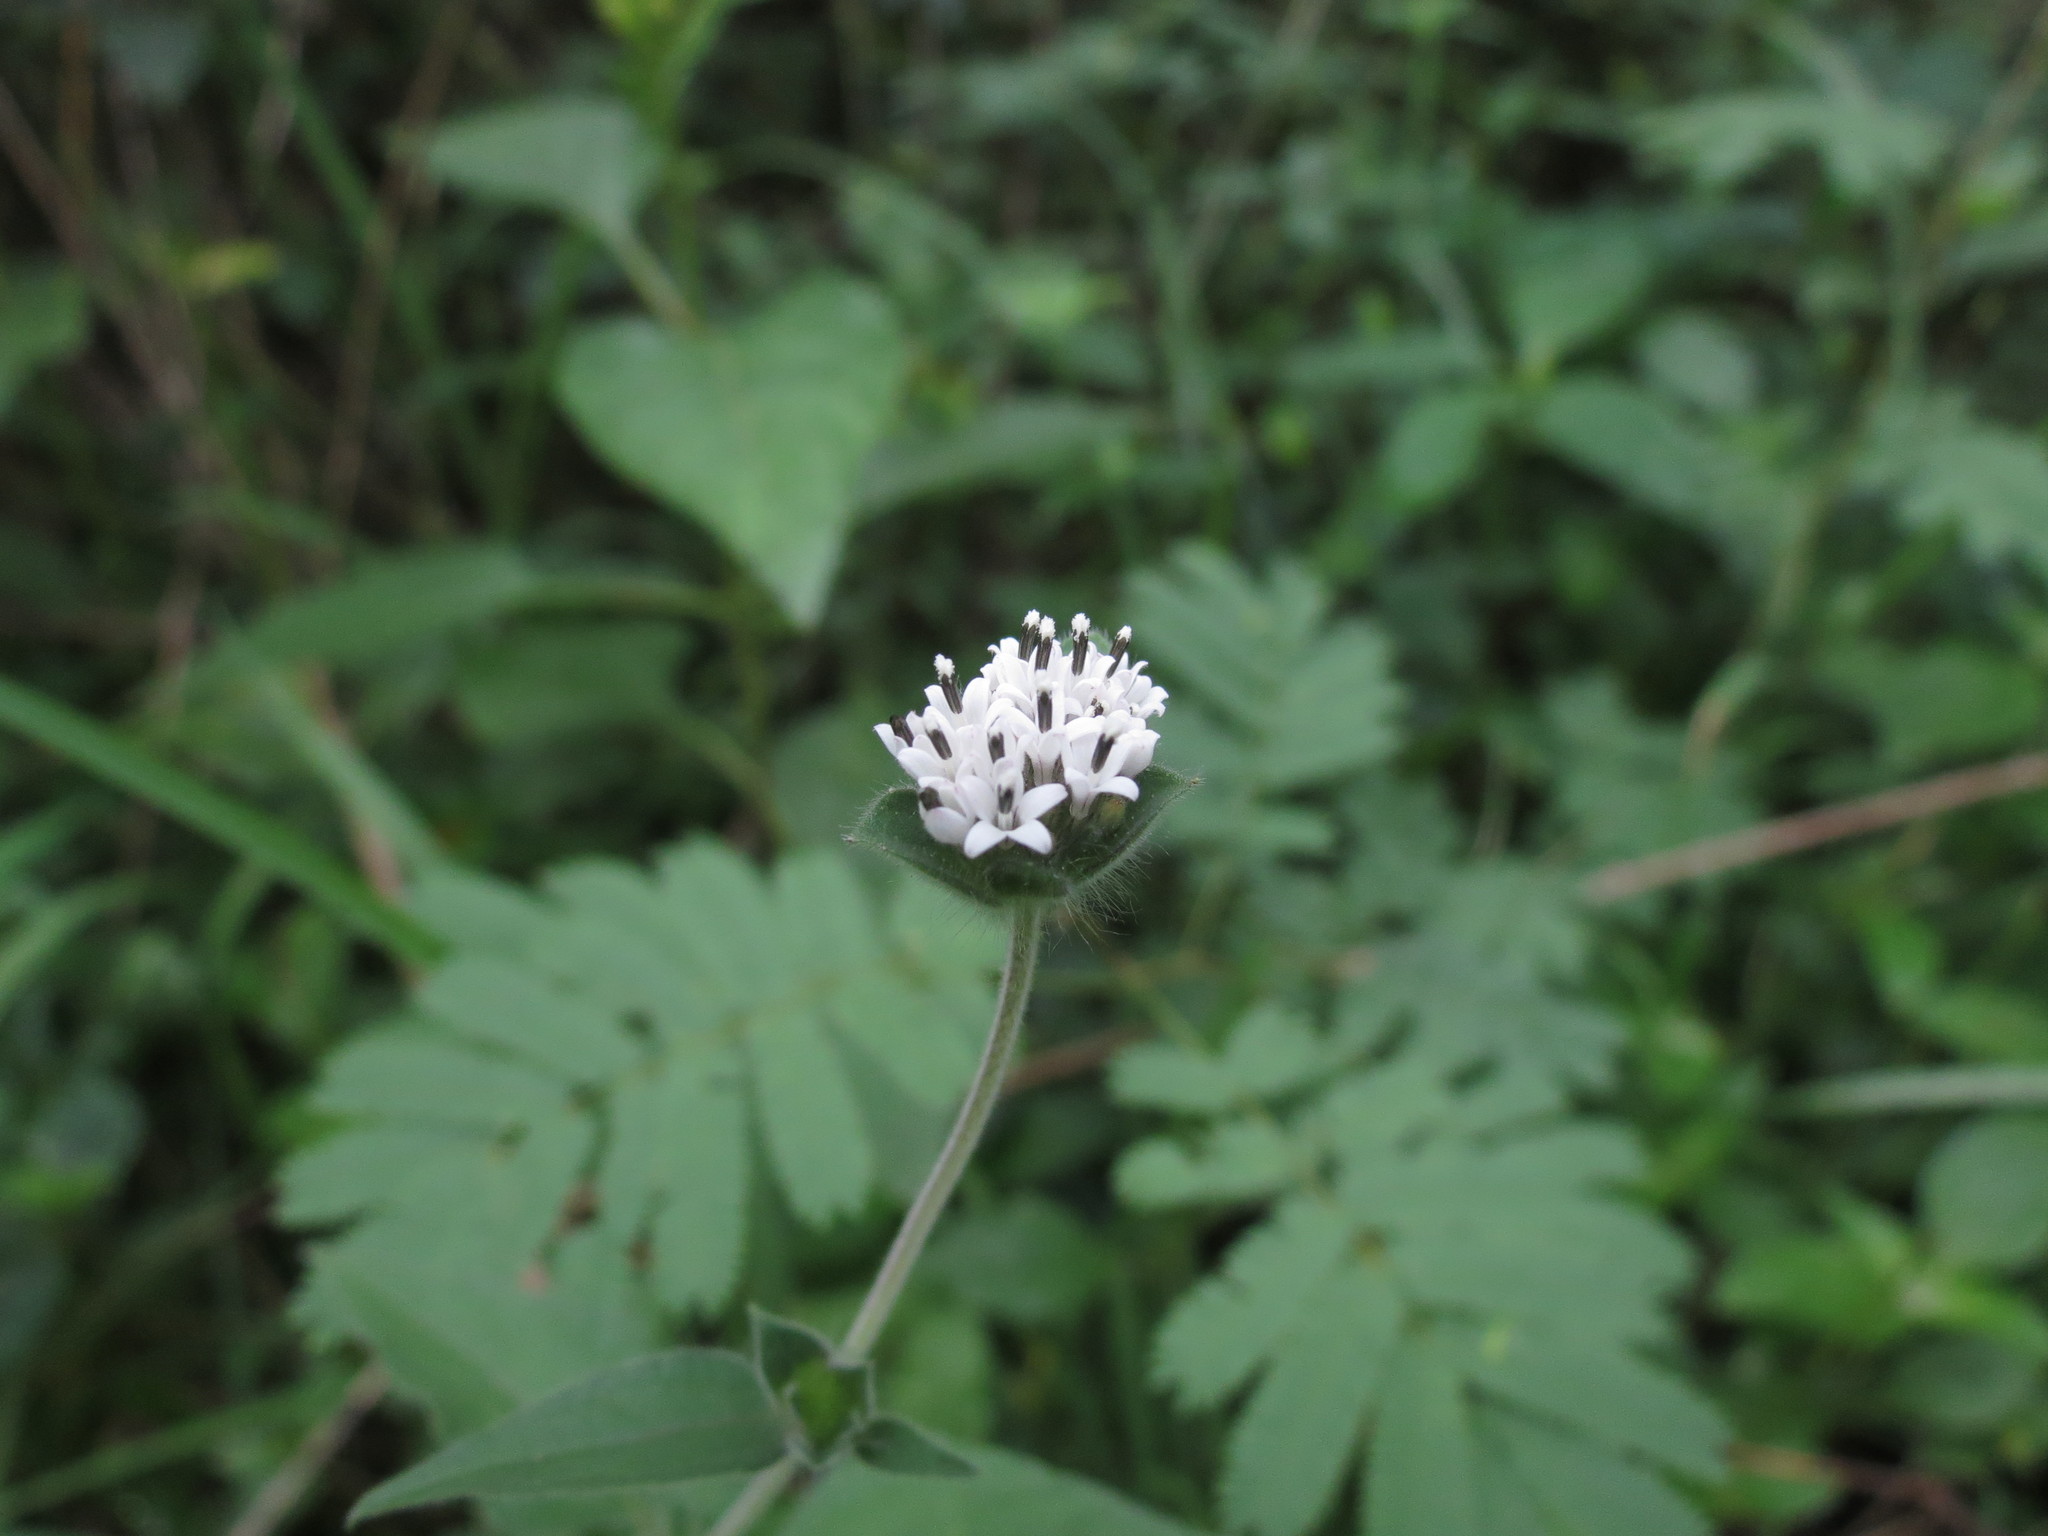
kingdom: Plantae
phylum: Tracheophyta
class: Magnoliopsida
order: Asterales
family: Asteraceae
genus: Lagascea
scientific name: Lagascea mollis
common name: Silkleaf
